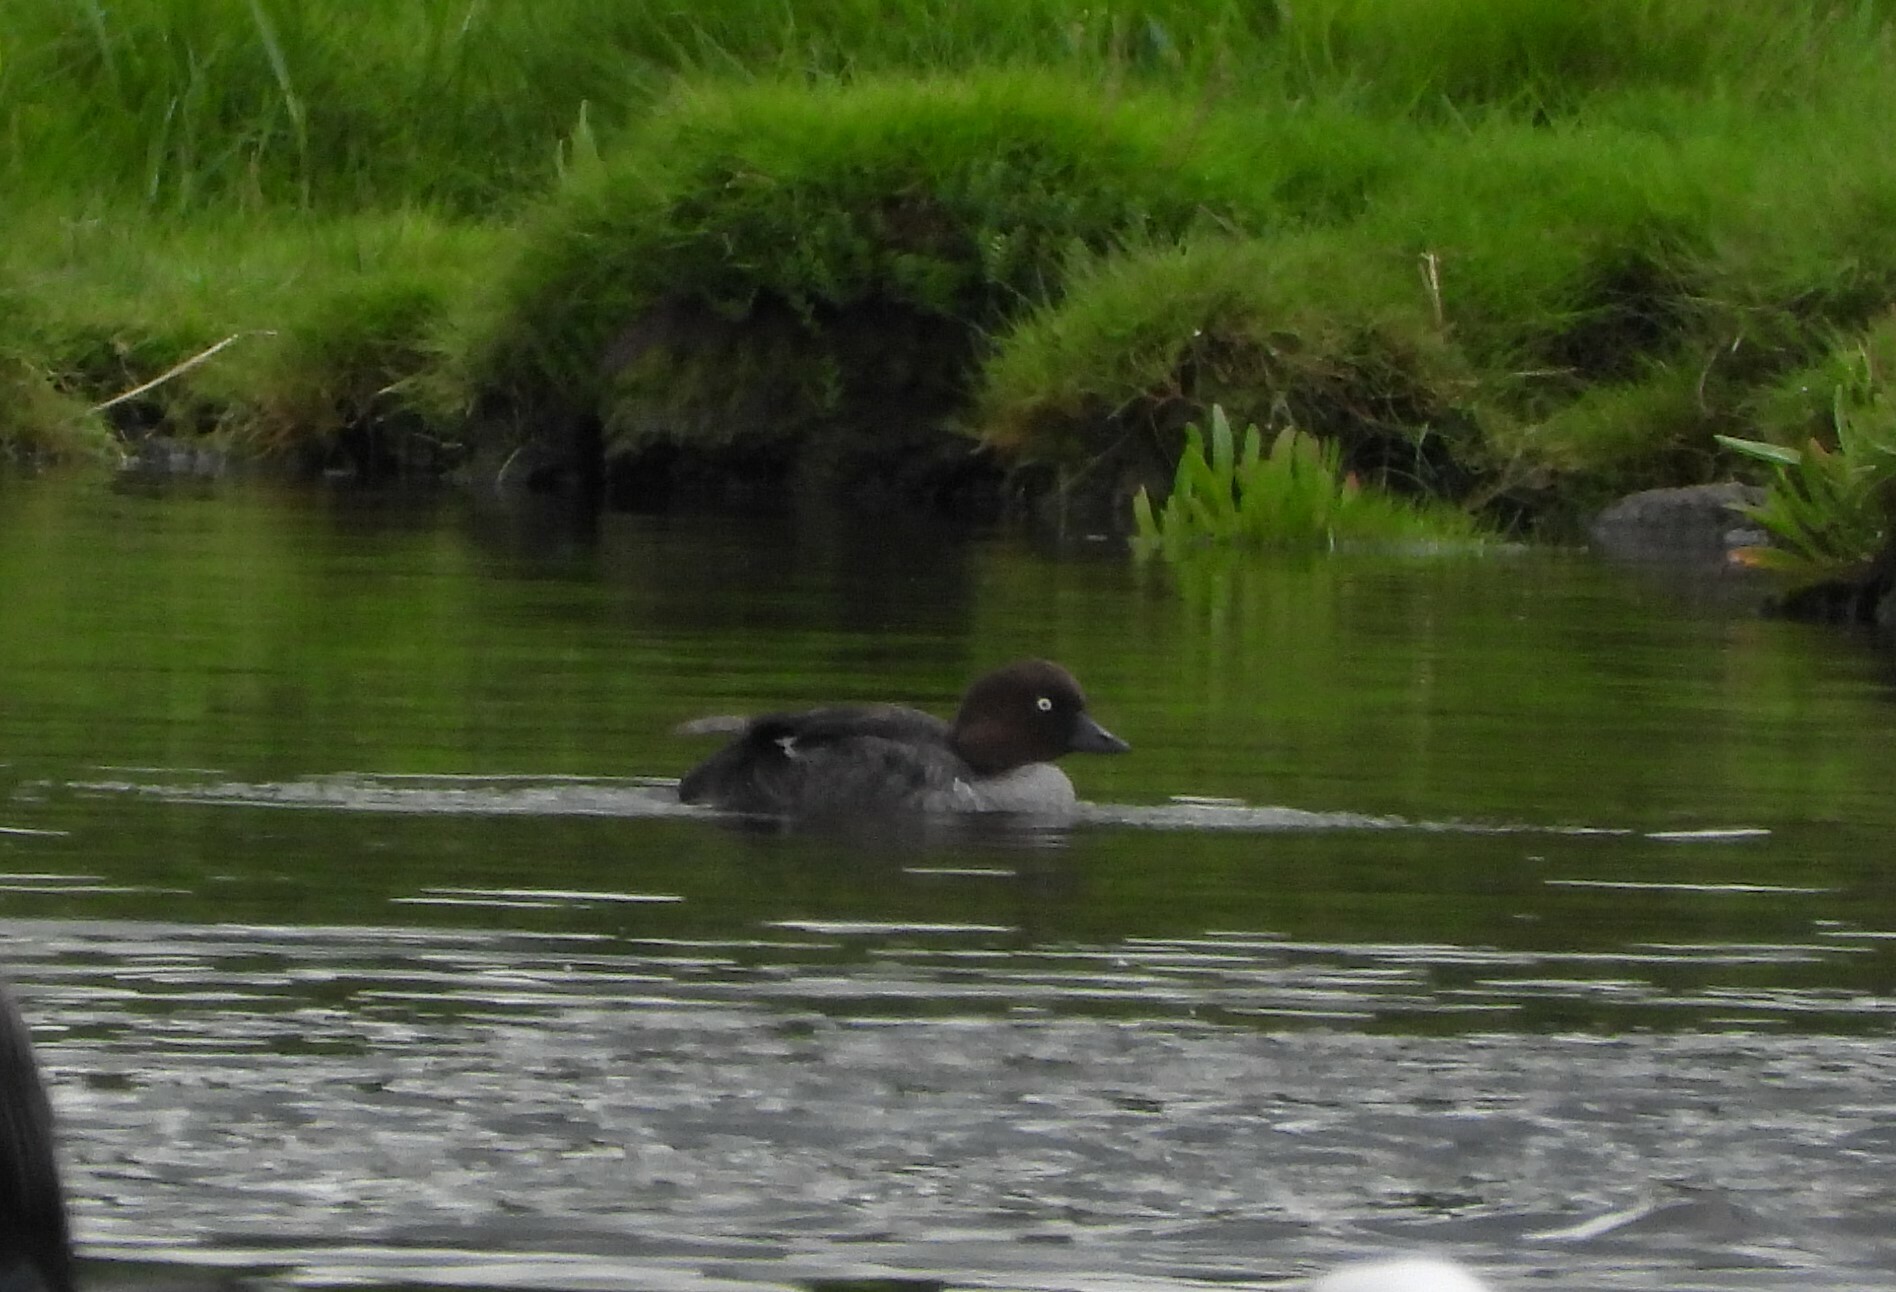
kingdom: Animalia
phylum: Chordata
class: Aves
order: Anseriformes
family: Anatidae
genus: Bucephala
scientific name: Bucephala clangula
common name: Common goldeneye
